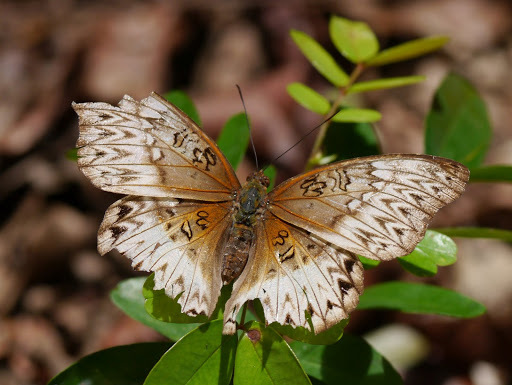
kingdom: Animalia
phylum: Arthropoda
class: Insecta
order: Lepidoptera
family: Nymphalidae
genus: Cymothoe
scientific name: Cymothoe sangaris
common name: Blood-red glider
